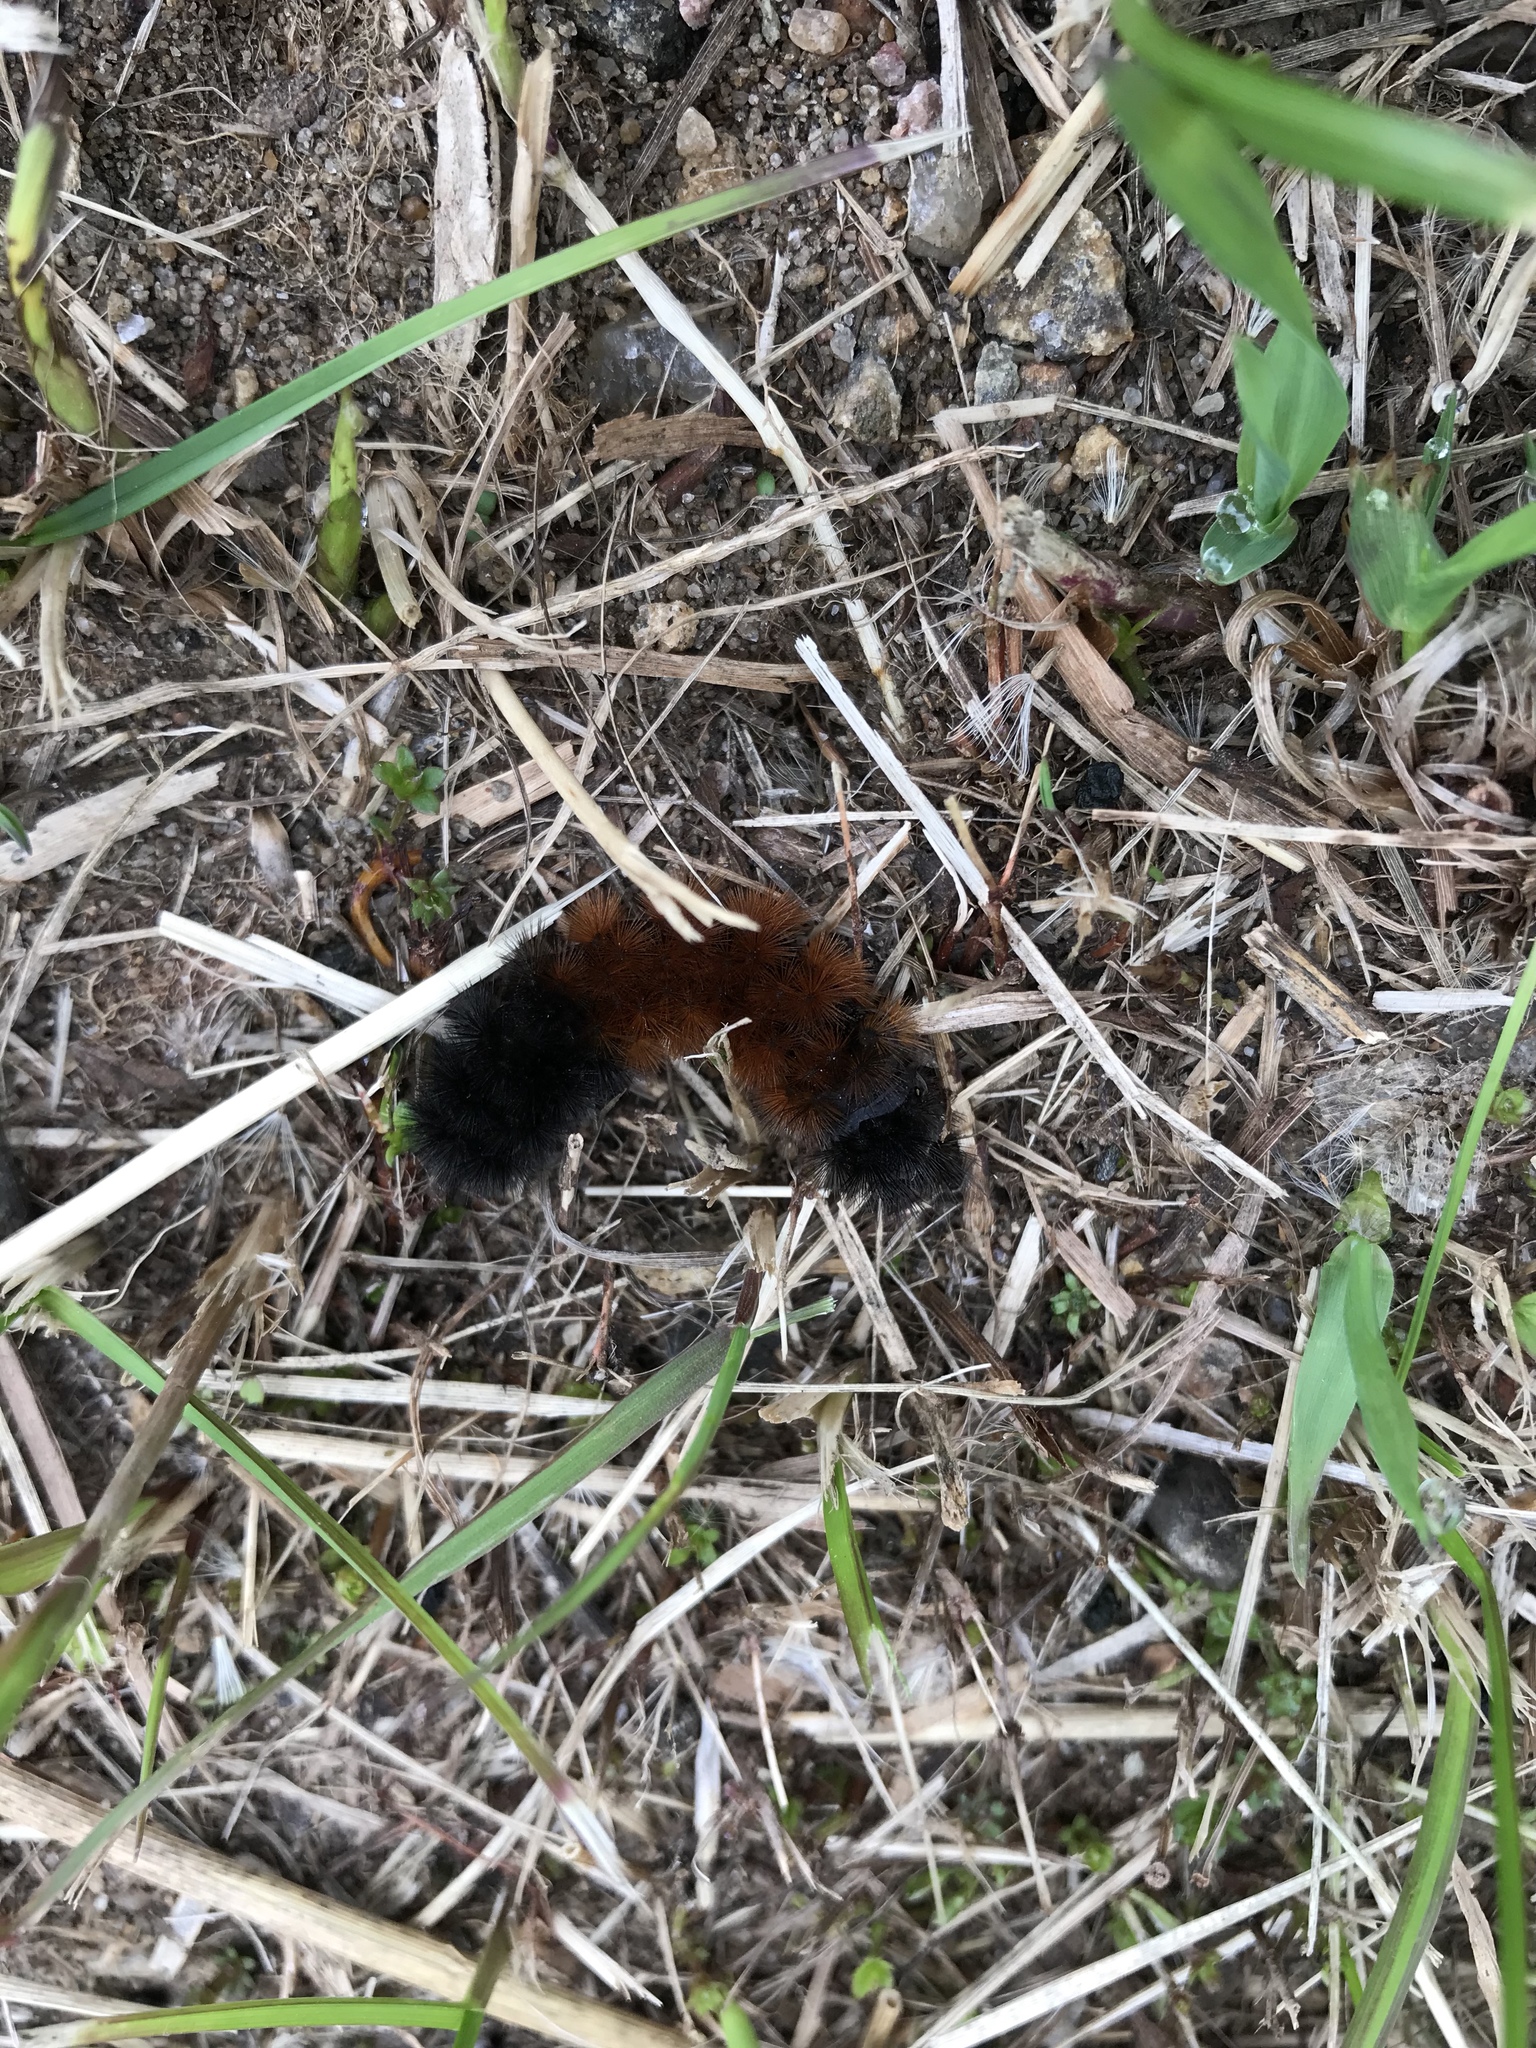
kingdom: Animalia
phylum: Arthropoda
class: Insecta
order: Lepidoptera
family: Erebidae
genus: Pyrrharctia
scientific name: Pyrrharctia isabella
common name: Isabella tiger moth
